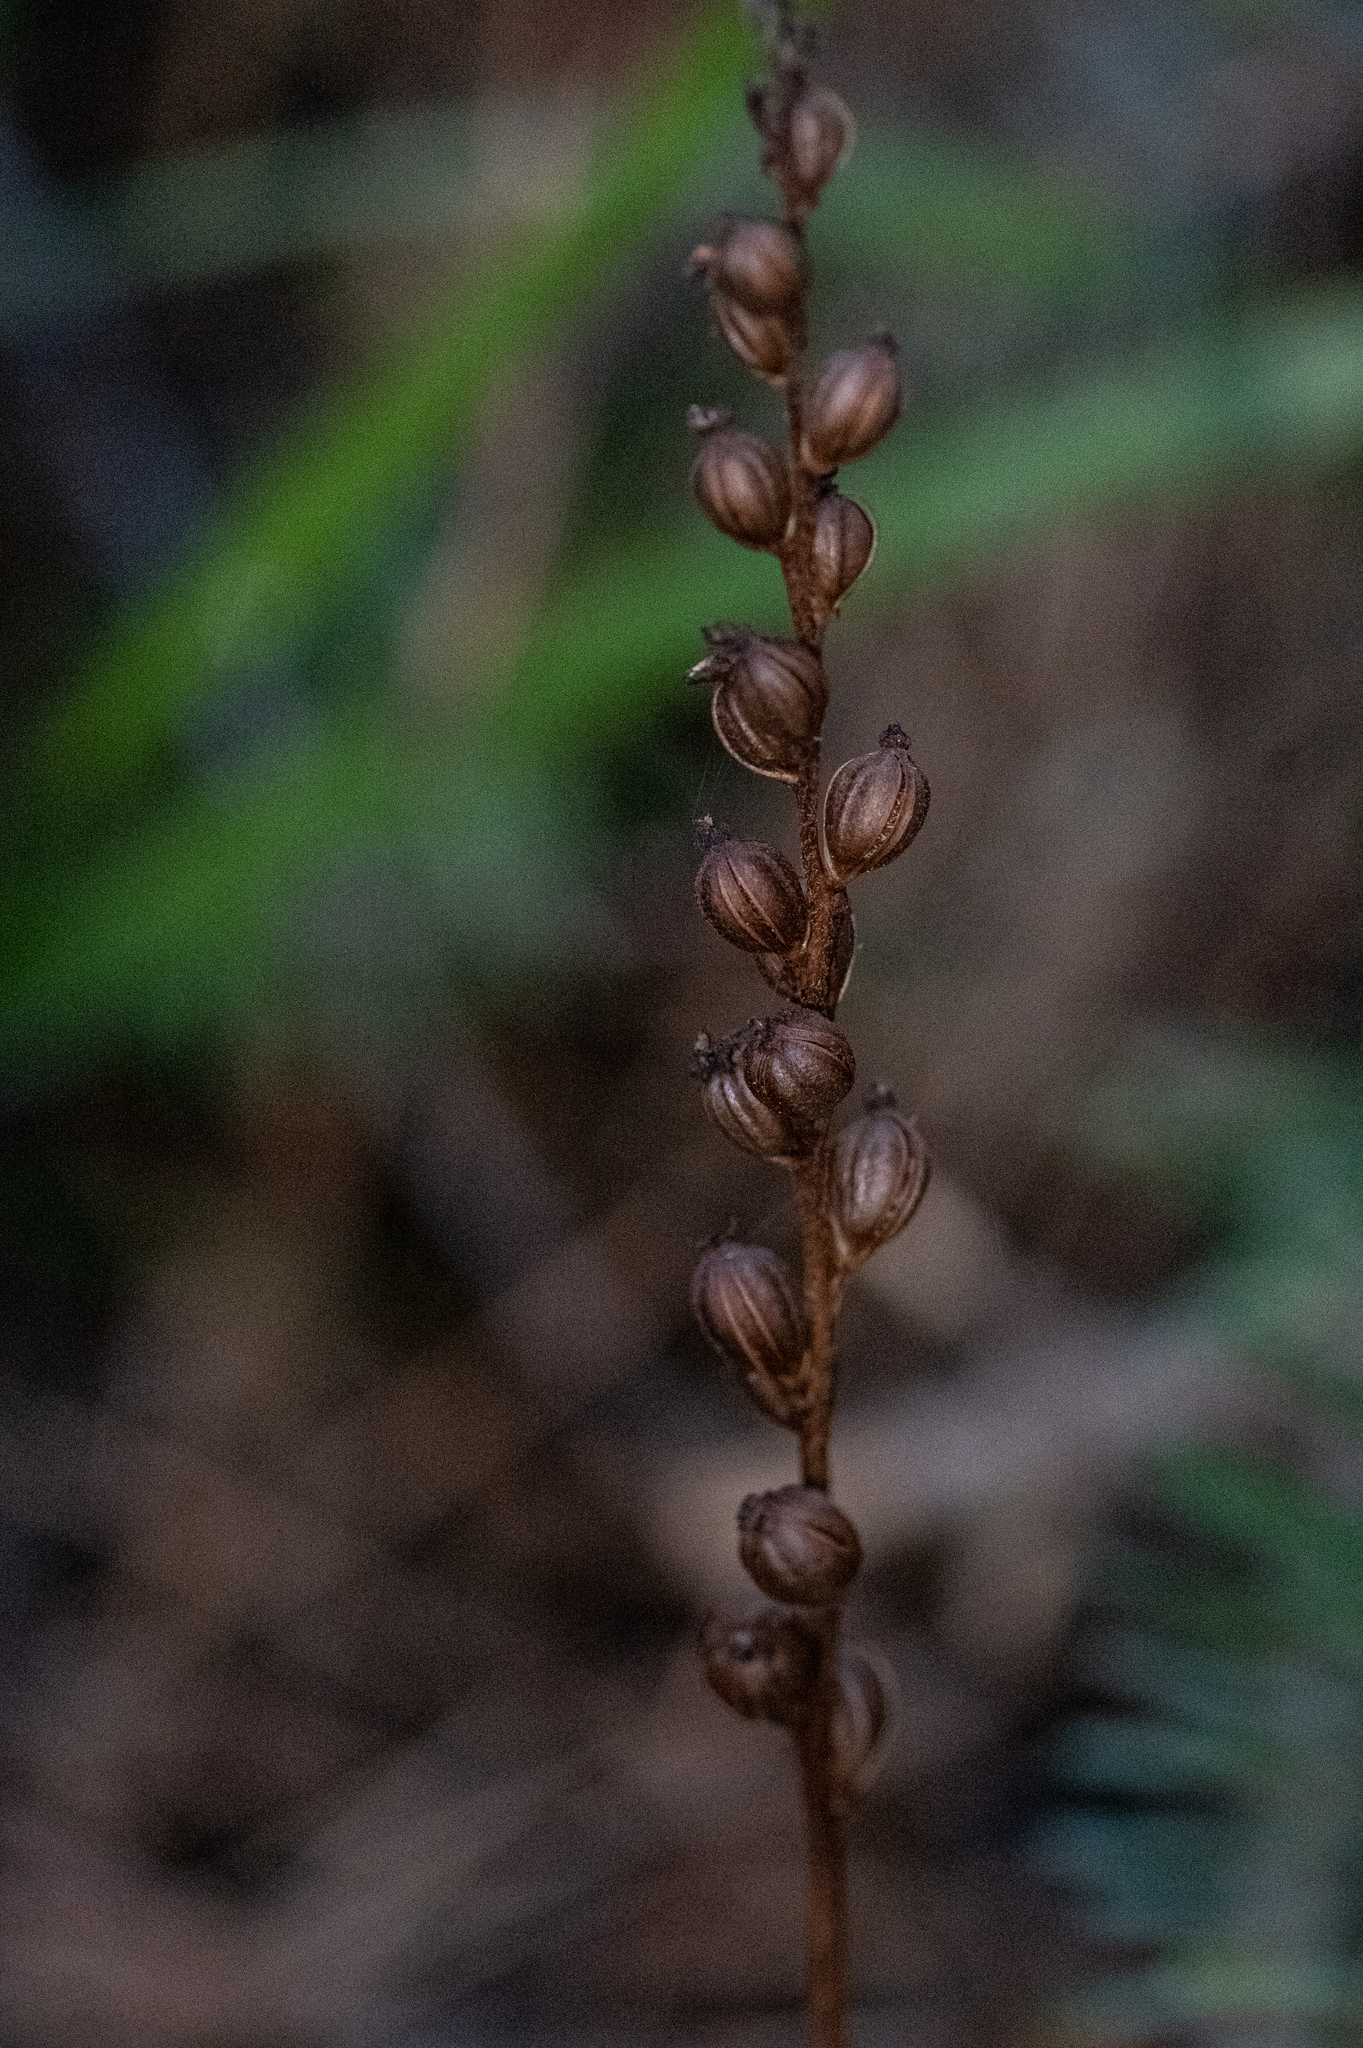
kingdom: Plantae
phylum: Tracheophyta
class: Liliopsida
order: Asparagales
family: Orchidaceae
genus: Goodyera
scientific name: Goodyera oblongifolia
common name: Giant rattlesnake-plantain
